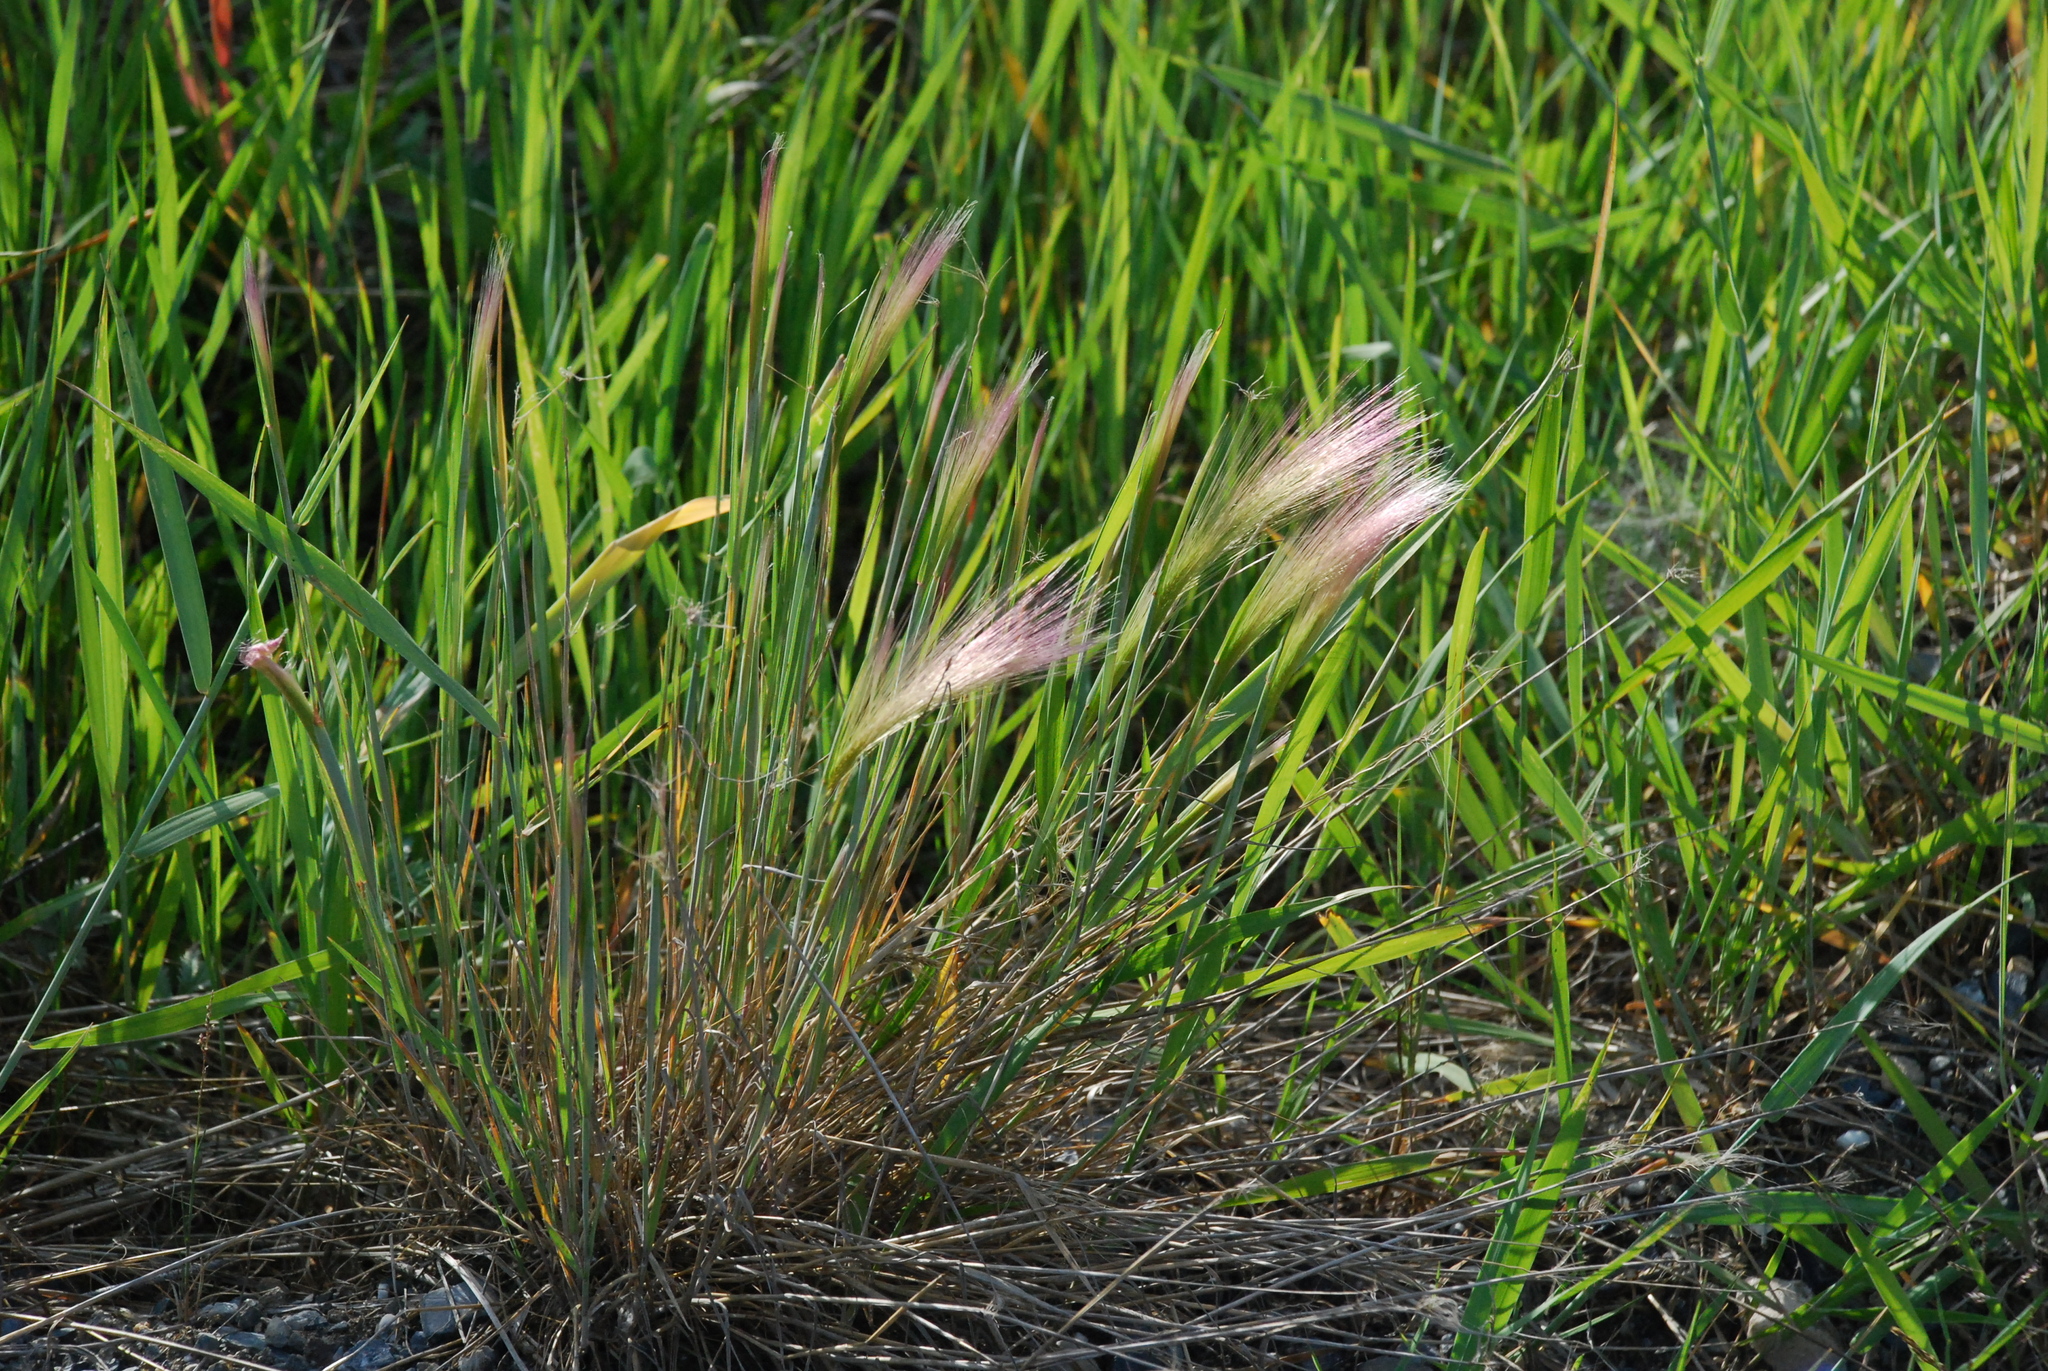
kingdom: Plantae
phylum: Tracheophyta
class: Liliopsida
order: Poales
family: Poaceae
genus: Hordeum
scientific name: Hordeum jubatum
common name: Foxtail barley
